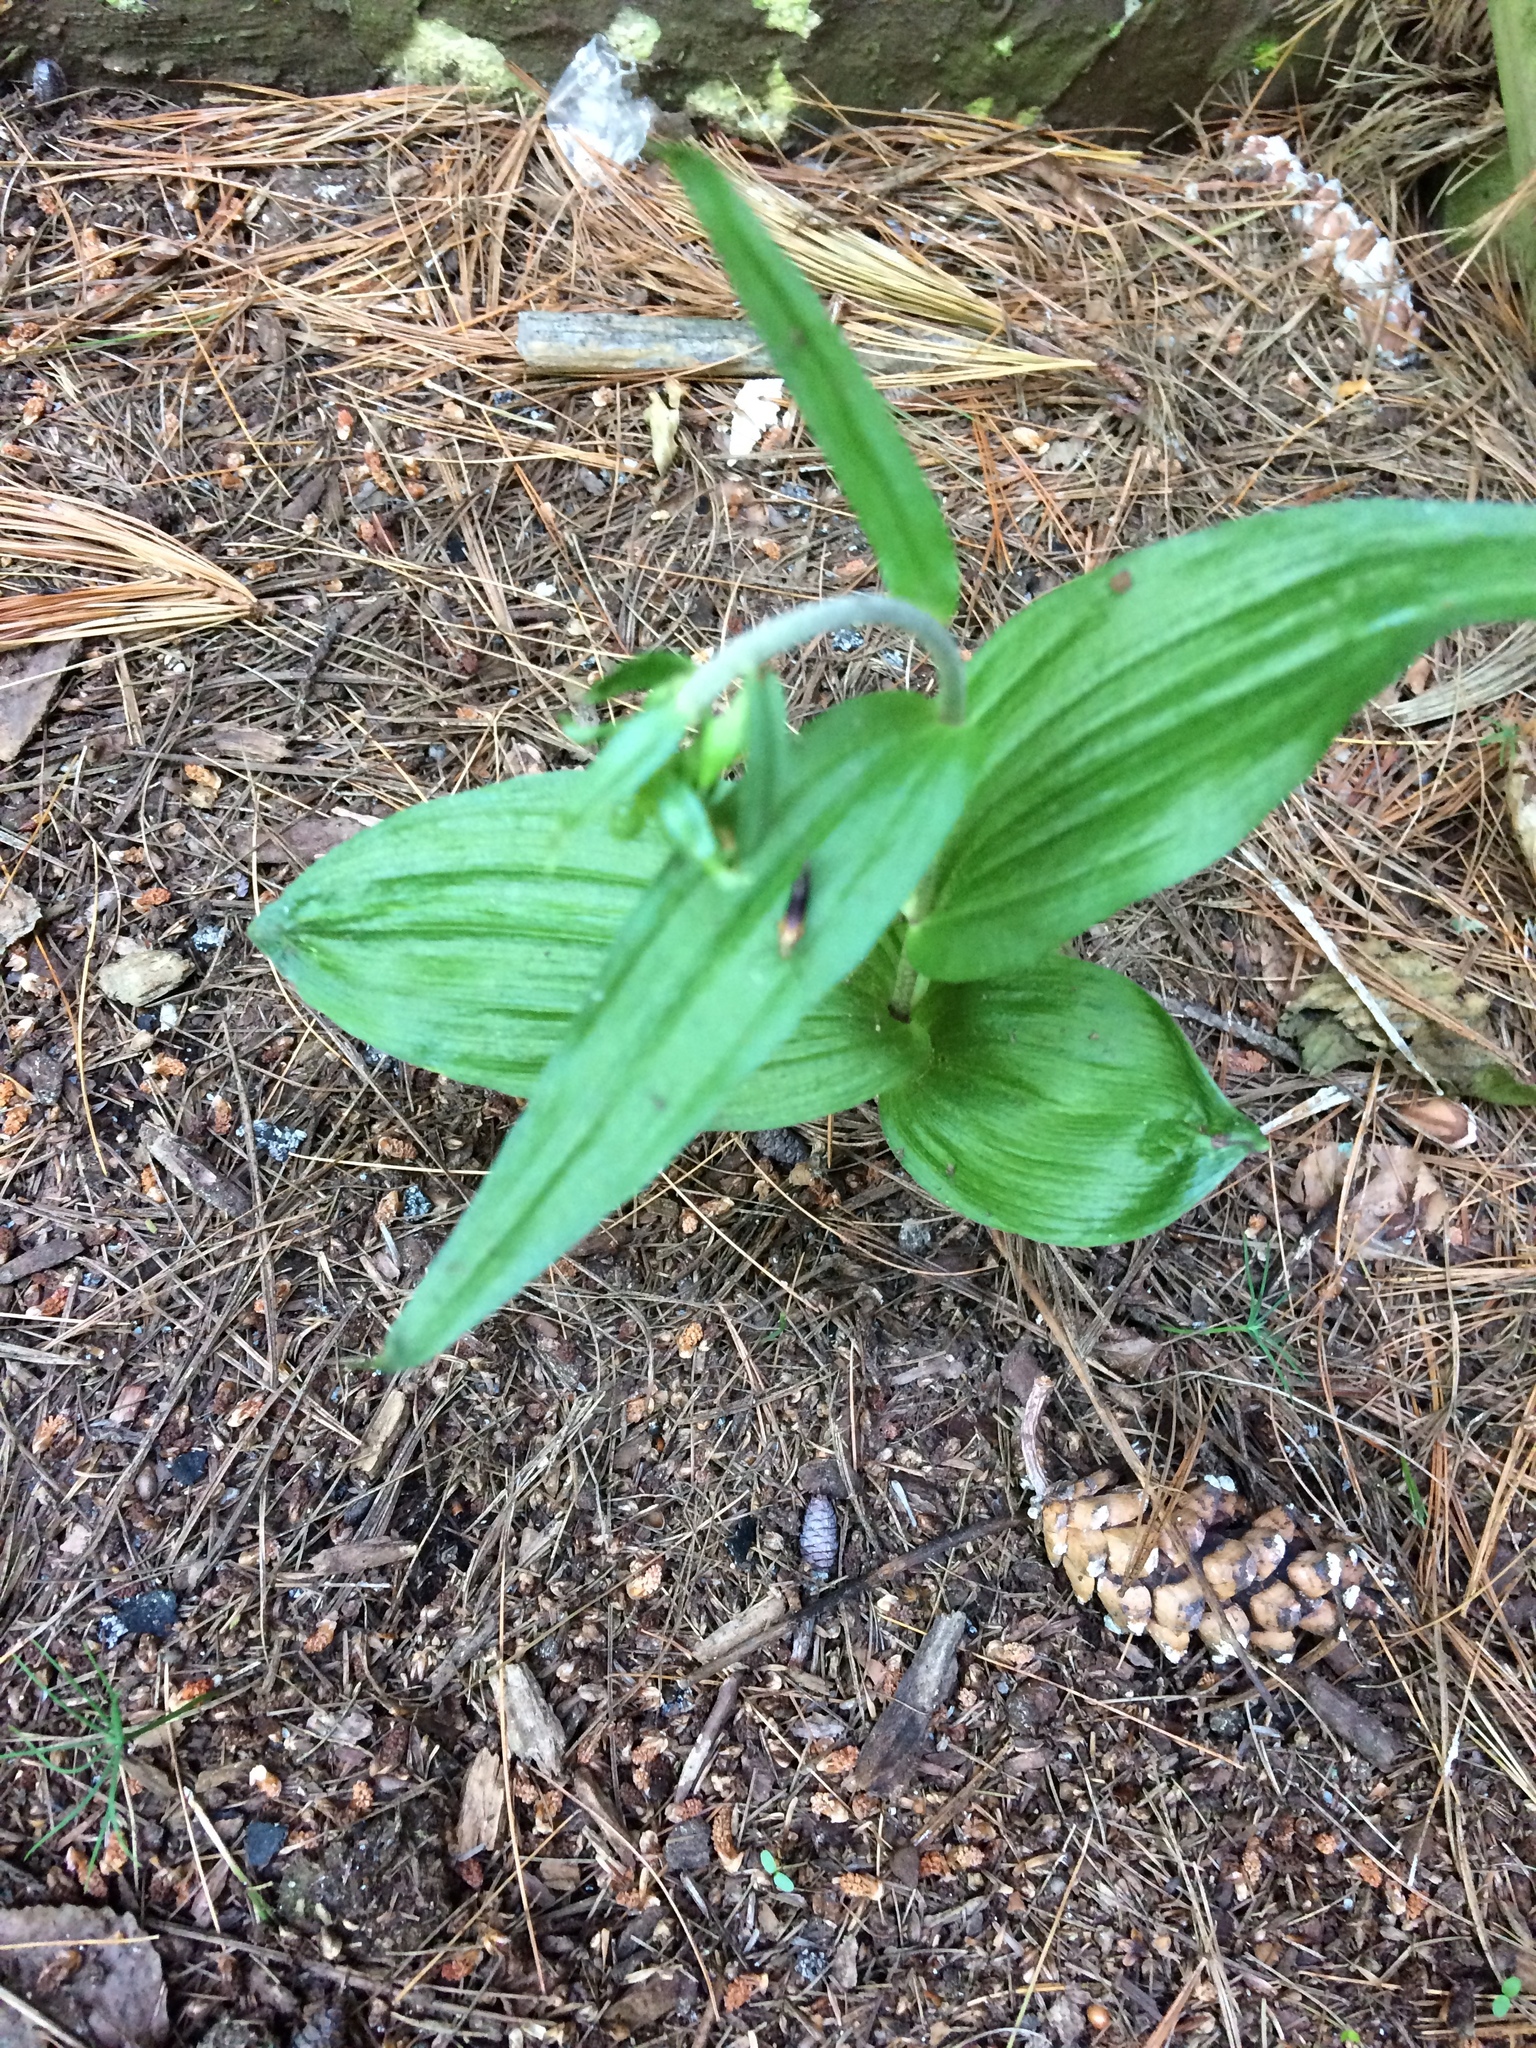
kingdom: Plantae
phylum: Tracheophyta
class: Liliopsida
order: Asparagales
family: Orchidaceae
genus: Epipactis
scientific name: Epipactis helleborine
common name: Broad-leaved helleborine
